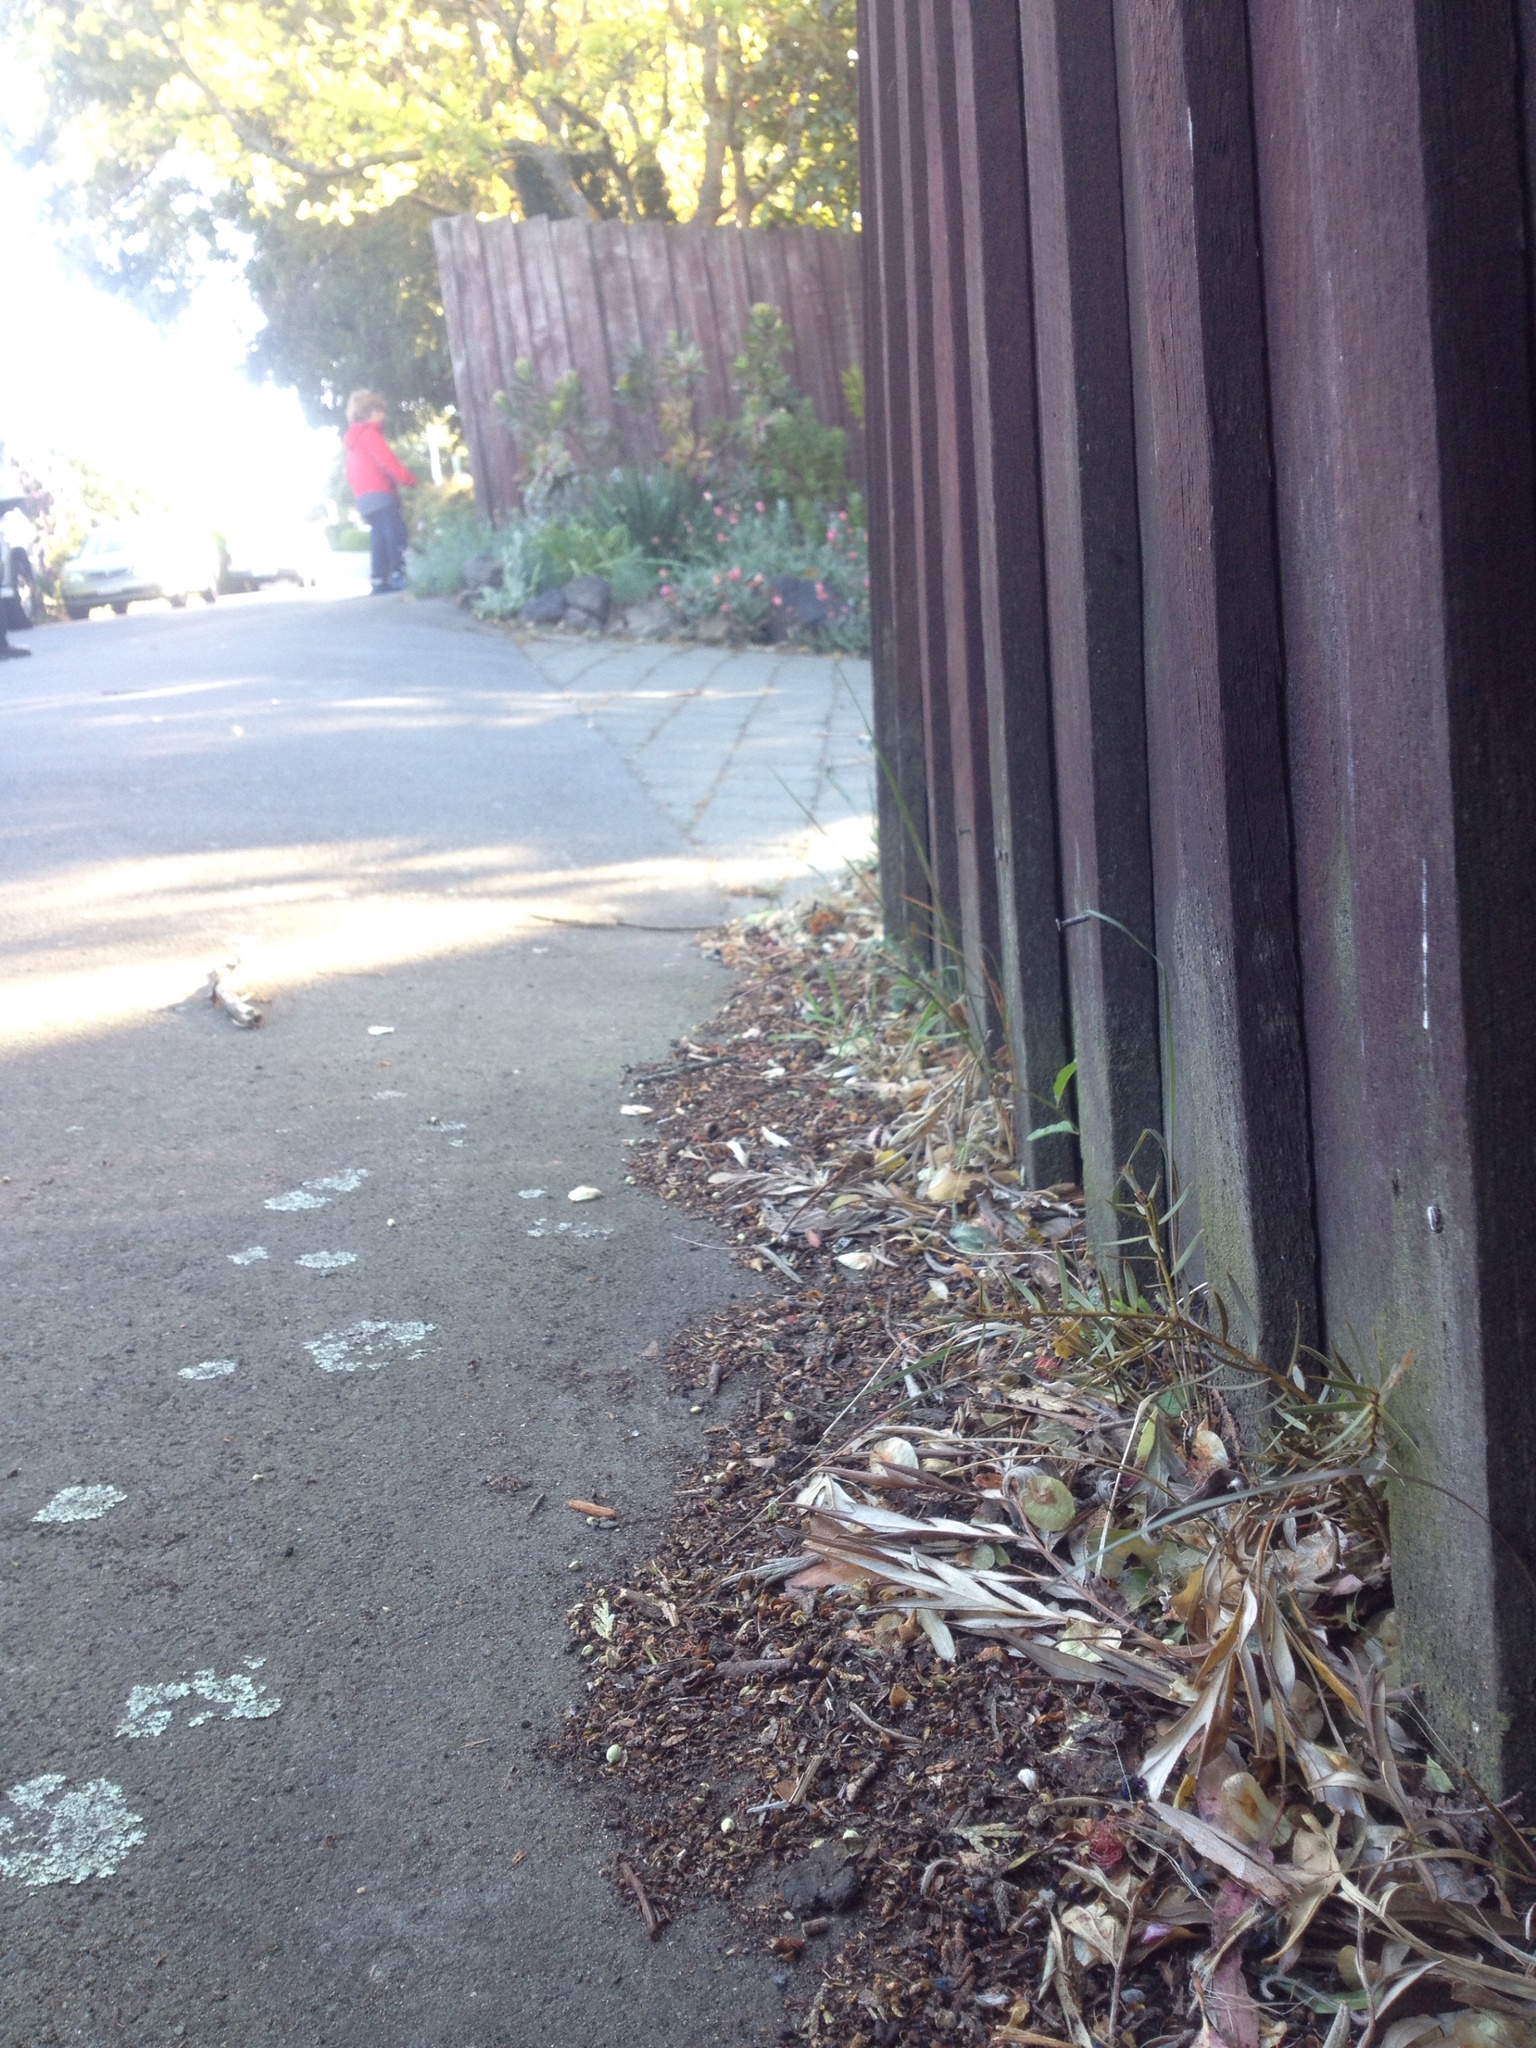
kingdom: Plantae
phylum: Tracheophyta
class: Pinopsida
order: Pinales
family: Podocarpaceae
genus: Podocarpus
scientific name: Podocarpus totara
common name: Totara
